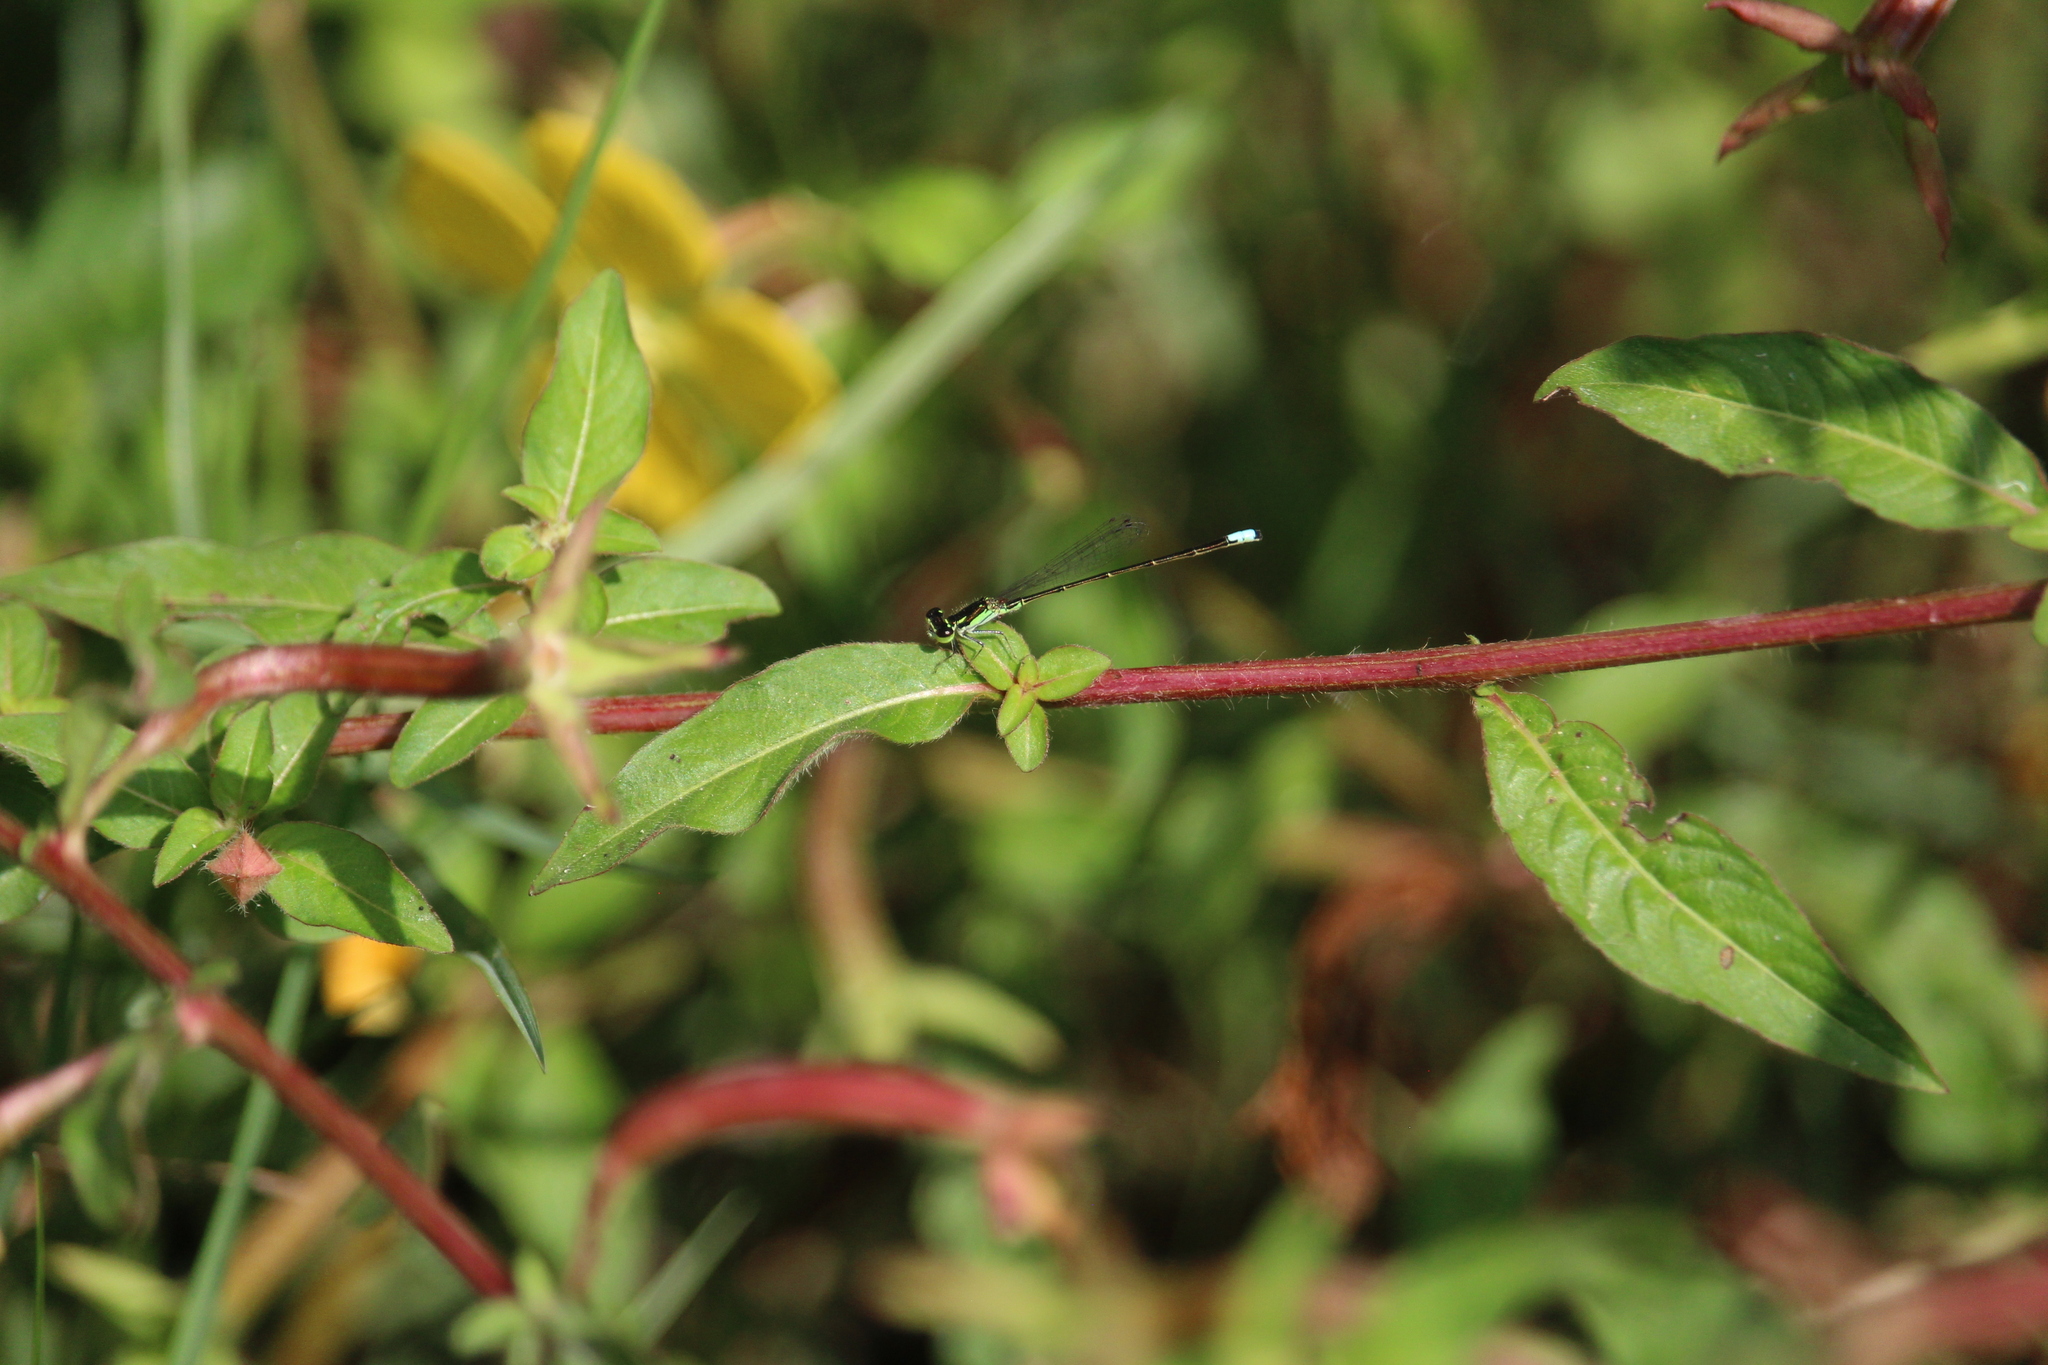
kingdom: Animalia
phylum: Arthropoda
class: Insecta
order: Odonata
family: Coenagrionidae
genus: Ischnura
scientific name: Ischnura posita
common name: Fragile forktail
